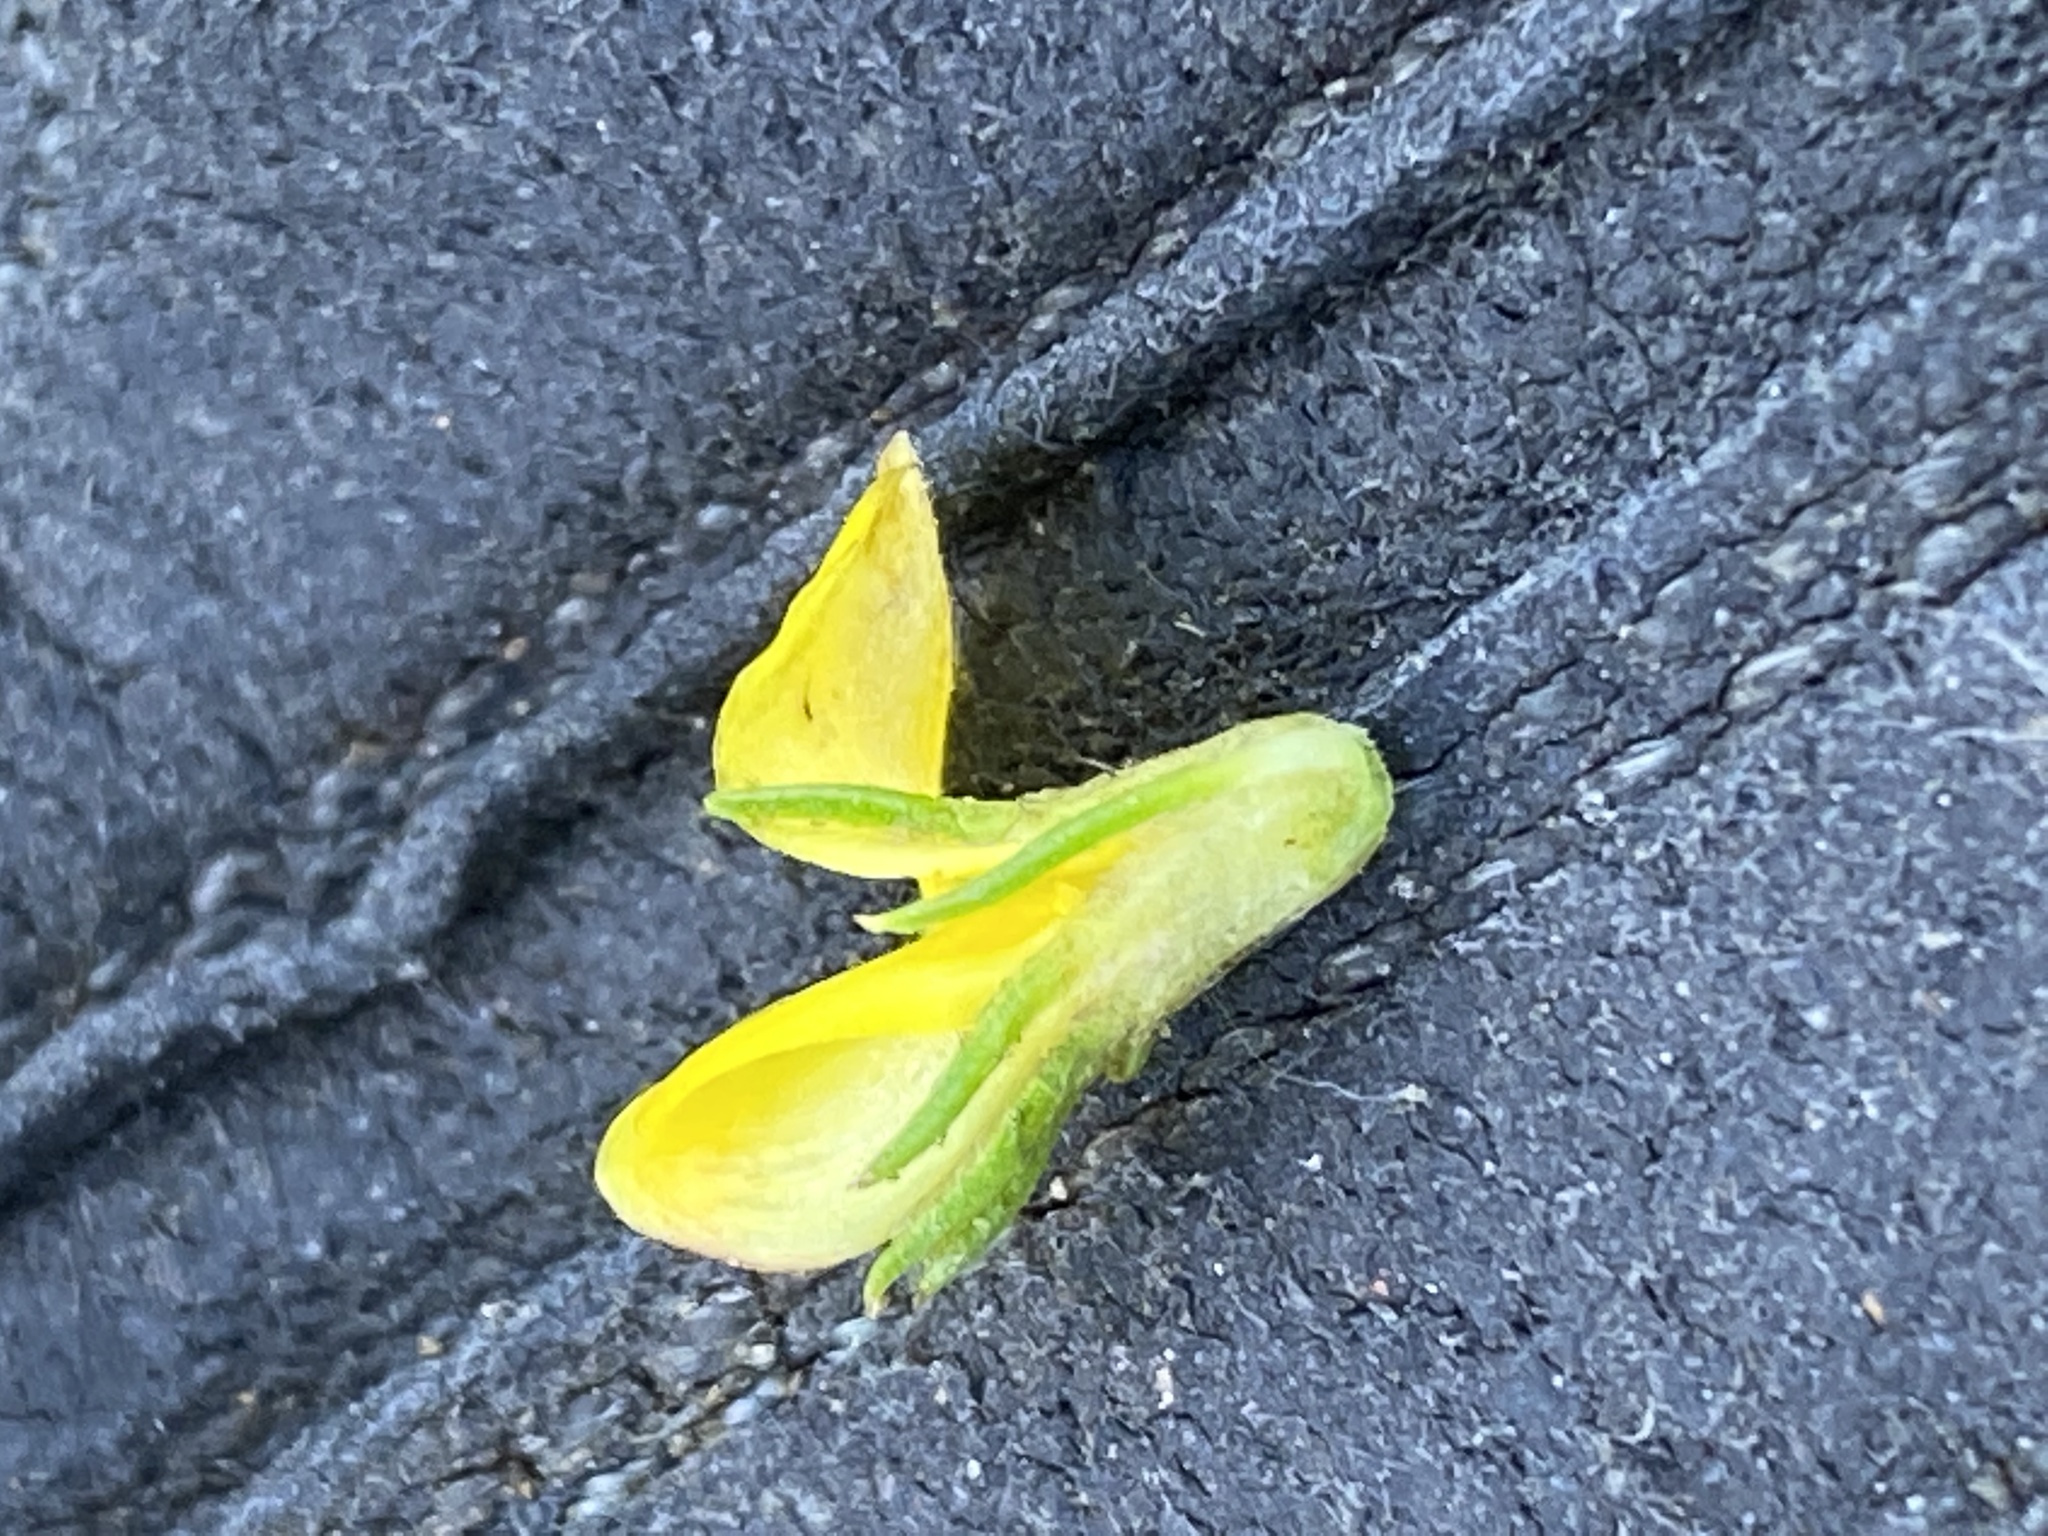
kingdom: Plantae
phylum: Tracheophyta
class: Magnoliopsida
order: Fabales
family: Fabaceae
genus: Aspalathus
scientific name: Aspalathus asparagoides
